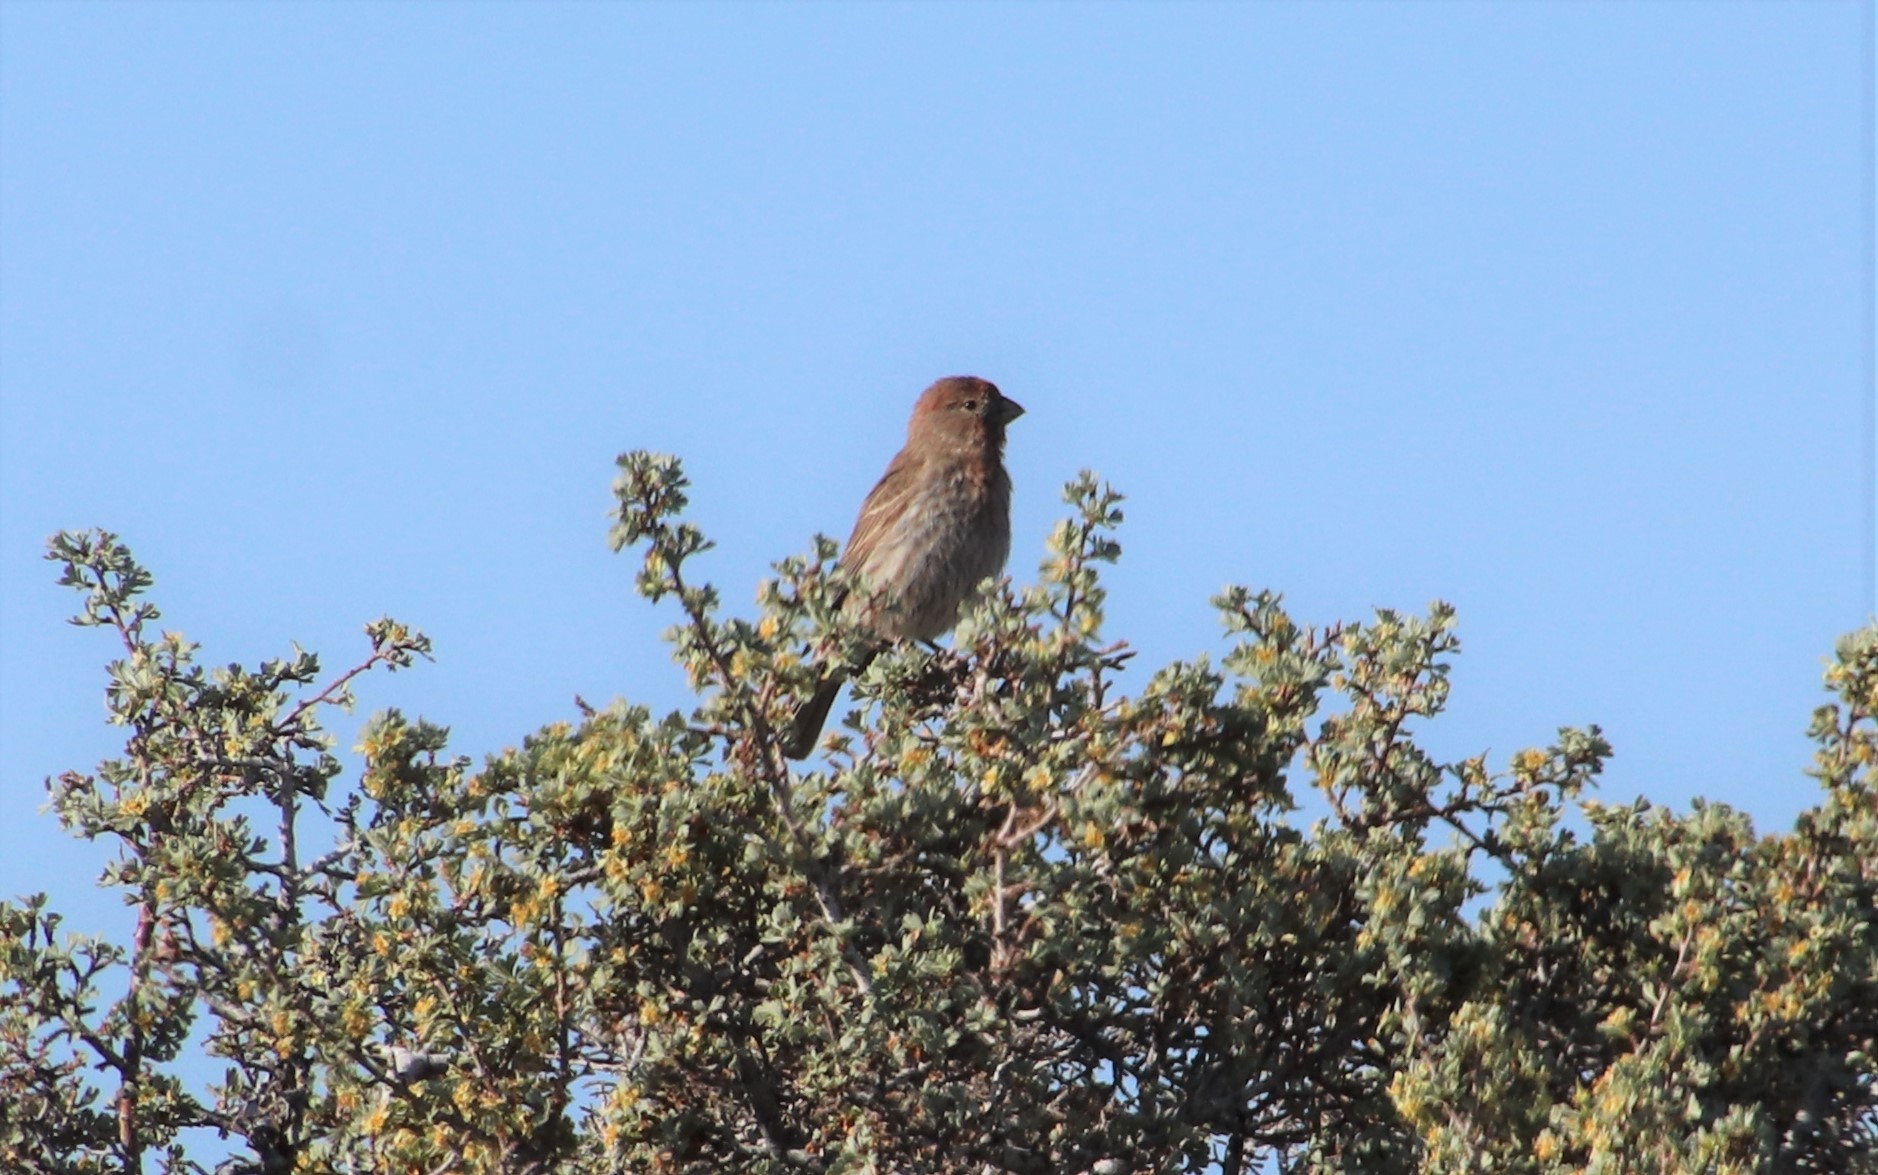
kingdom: Animalia
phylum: Chordata
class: Aves
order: Passeriformes
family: Fringillidae
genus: Haemorhous
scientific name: Haemorhous mexicanus
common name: House finch
